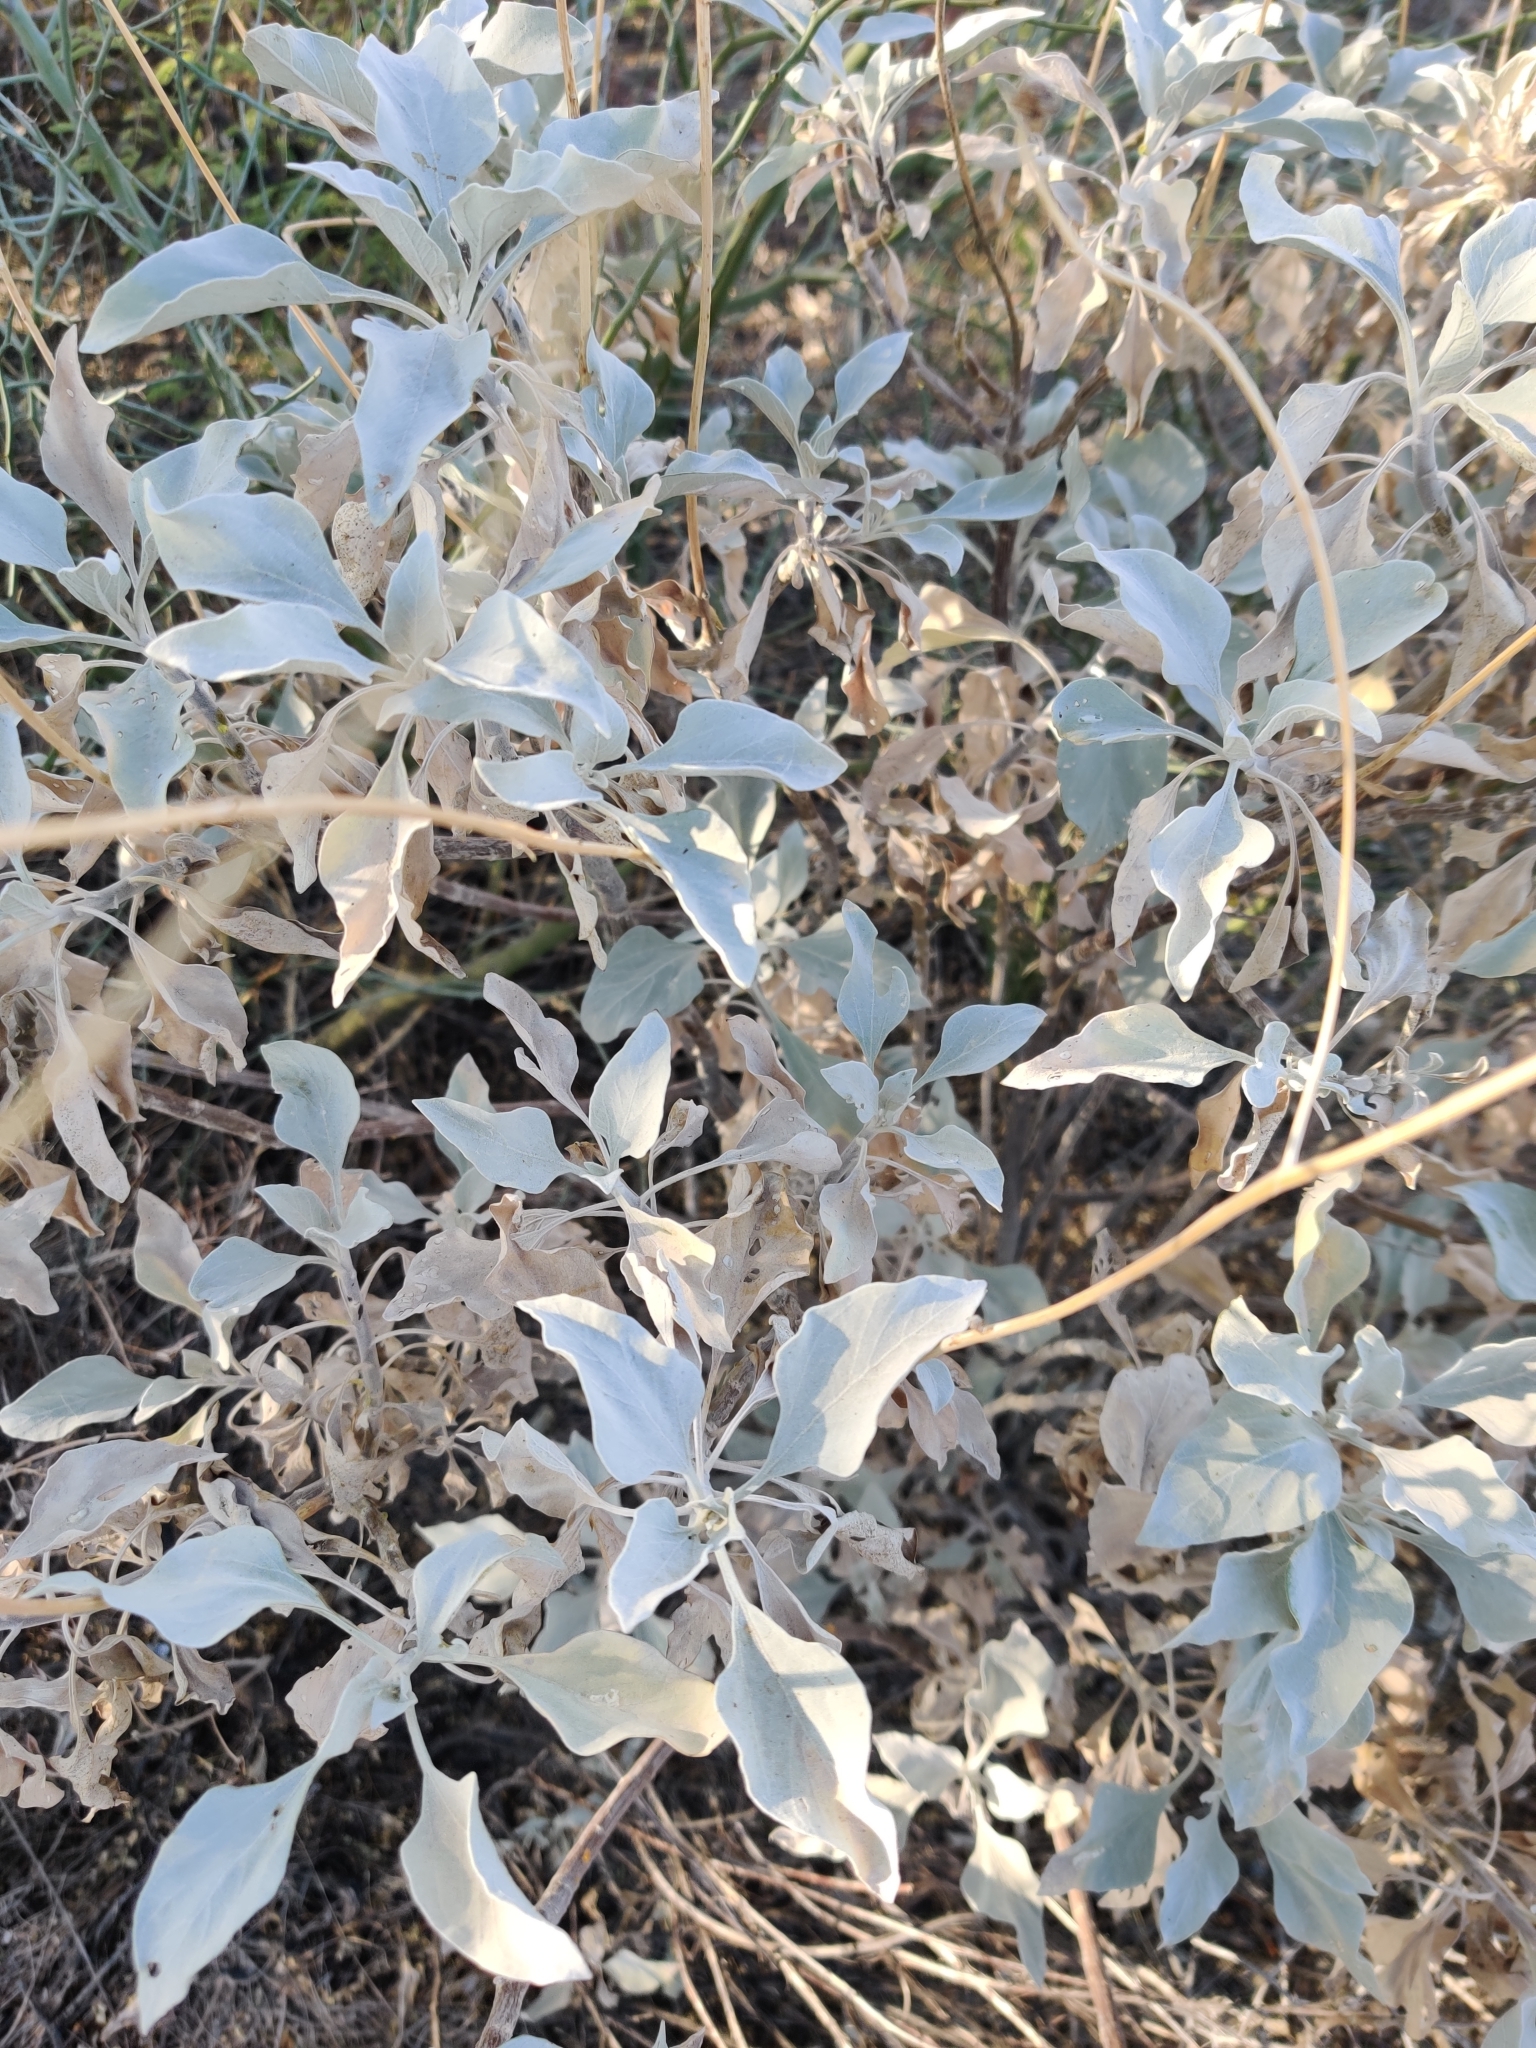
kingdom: Plantae
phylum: Tracheophyta
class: Magnoliopsida
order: Asterales
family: Asteraceae
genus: Encelia
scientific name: Encelia farinosa
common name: Brittlebush
